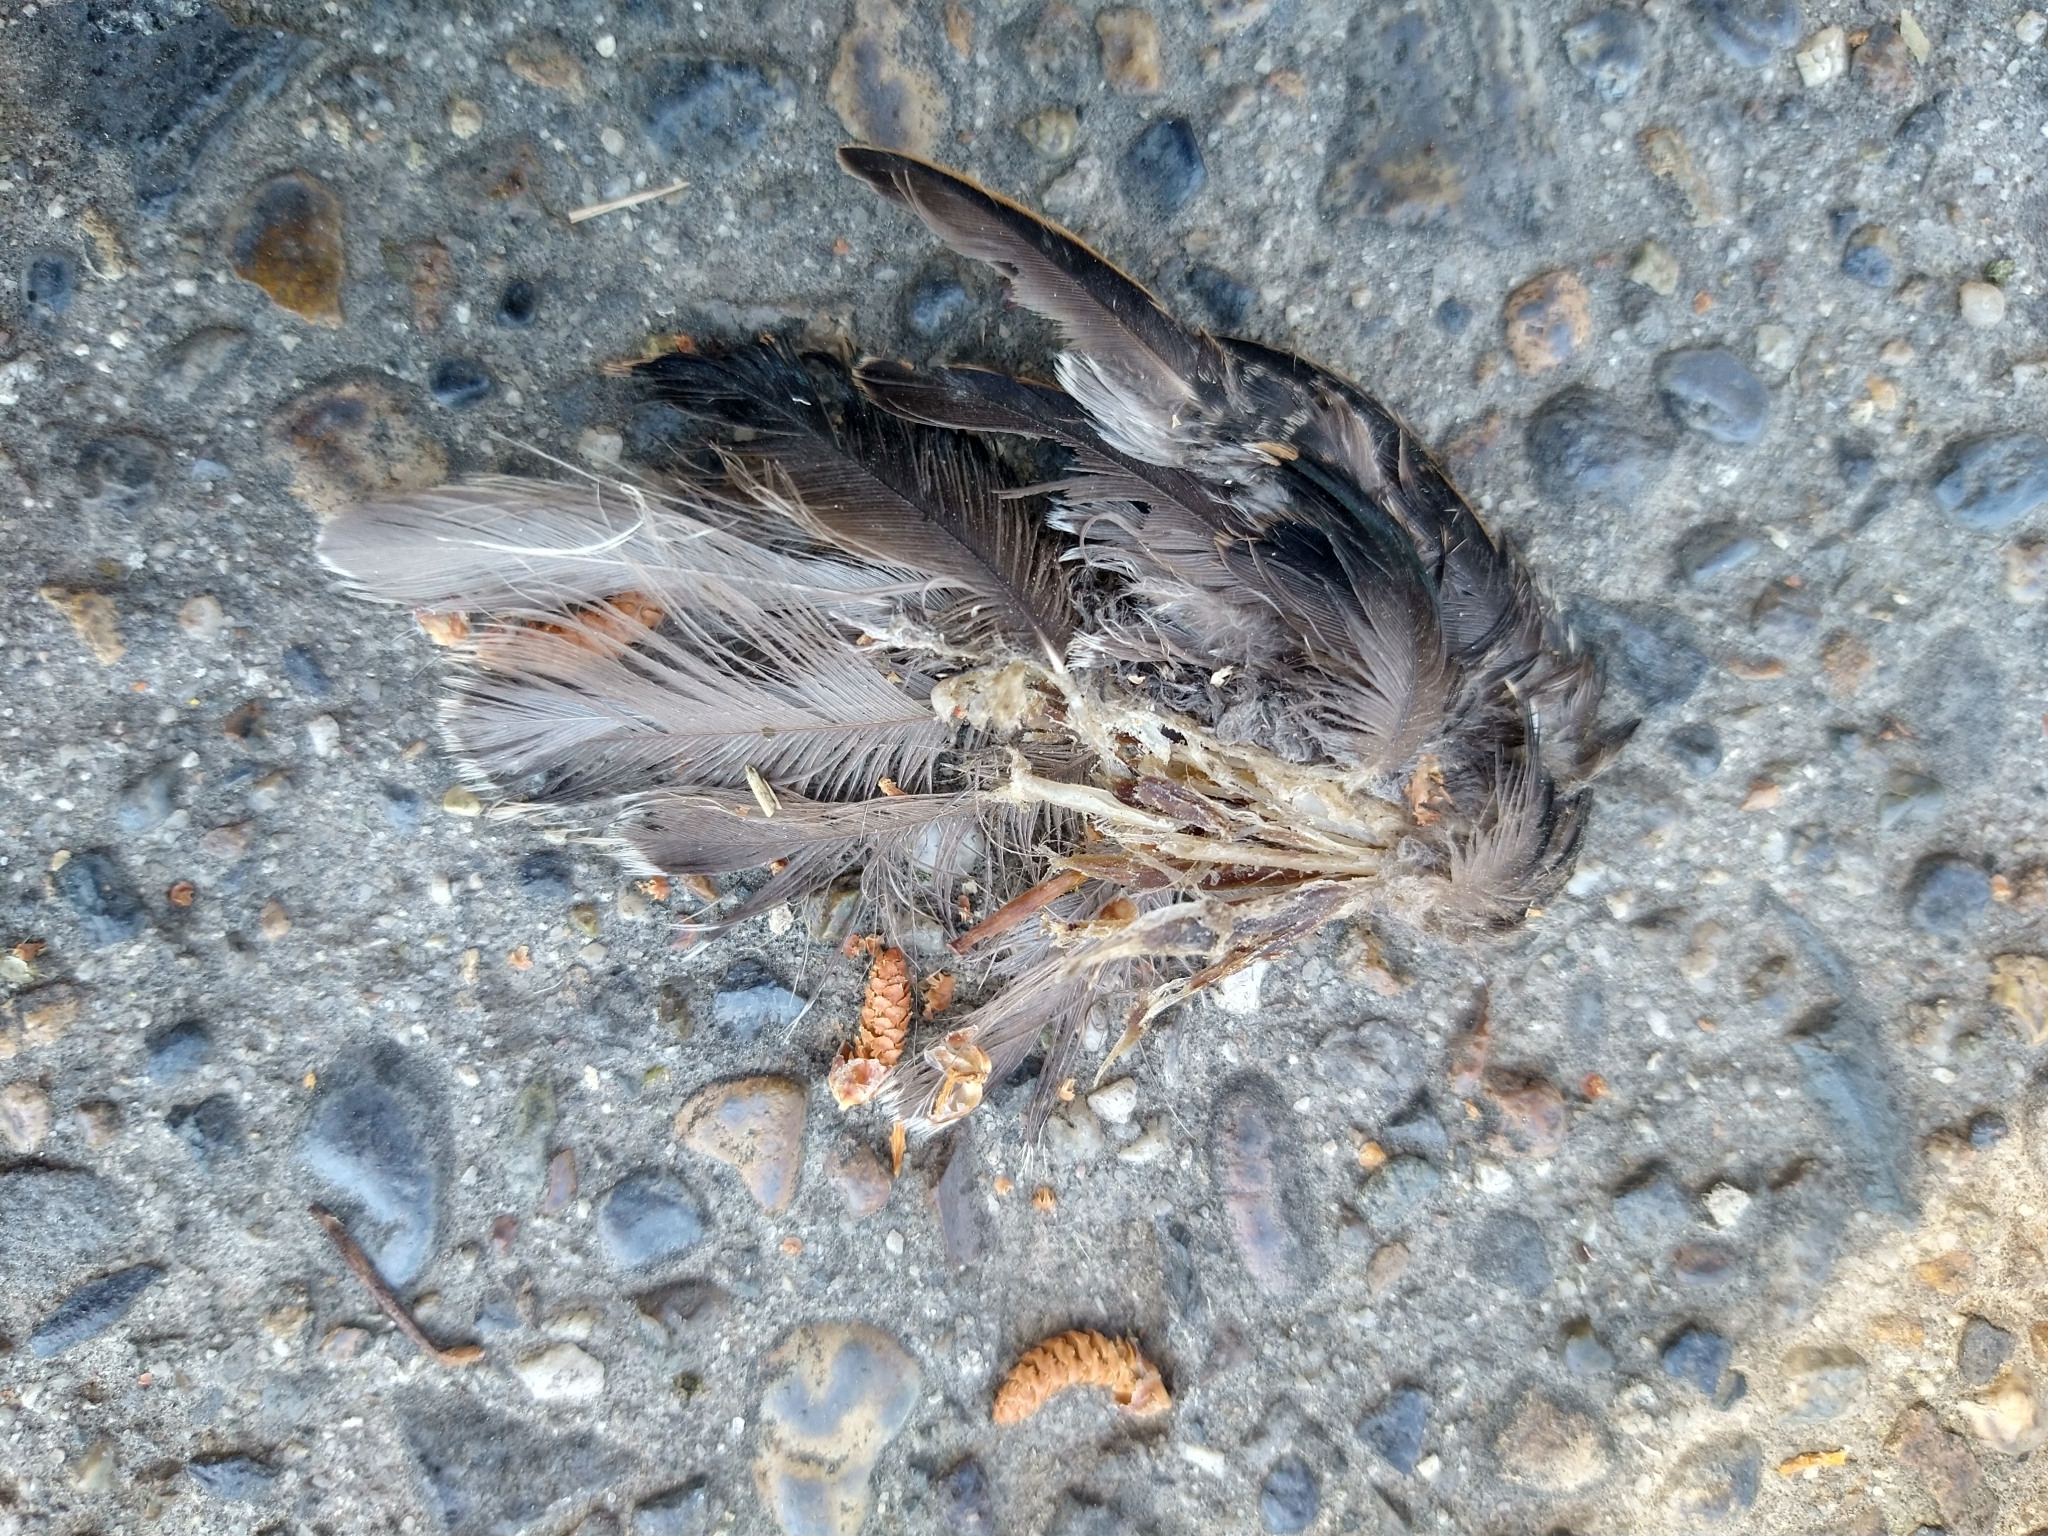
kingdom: Animalia
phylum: Chordata
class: Aves
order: Passeriformes
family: Sturnidae
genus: Sturnus
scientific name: Sturnus vulgaris
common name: Common starling
